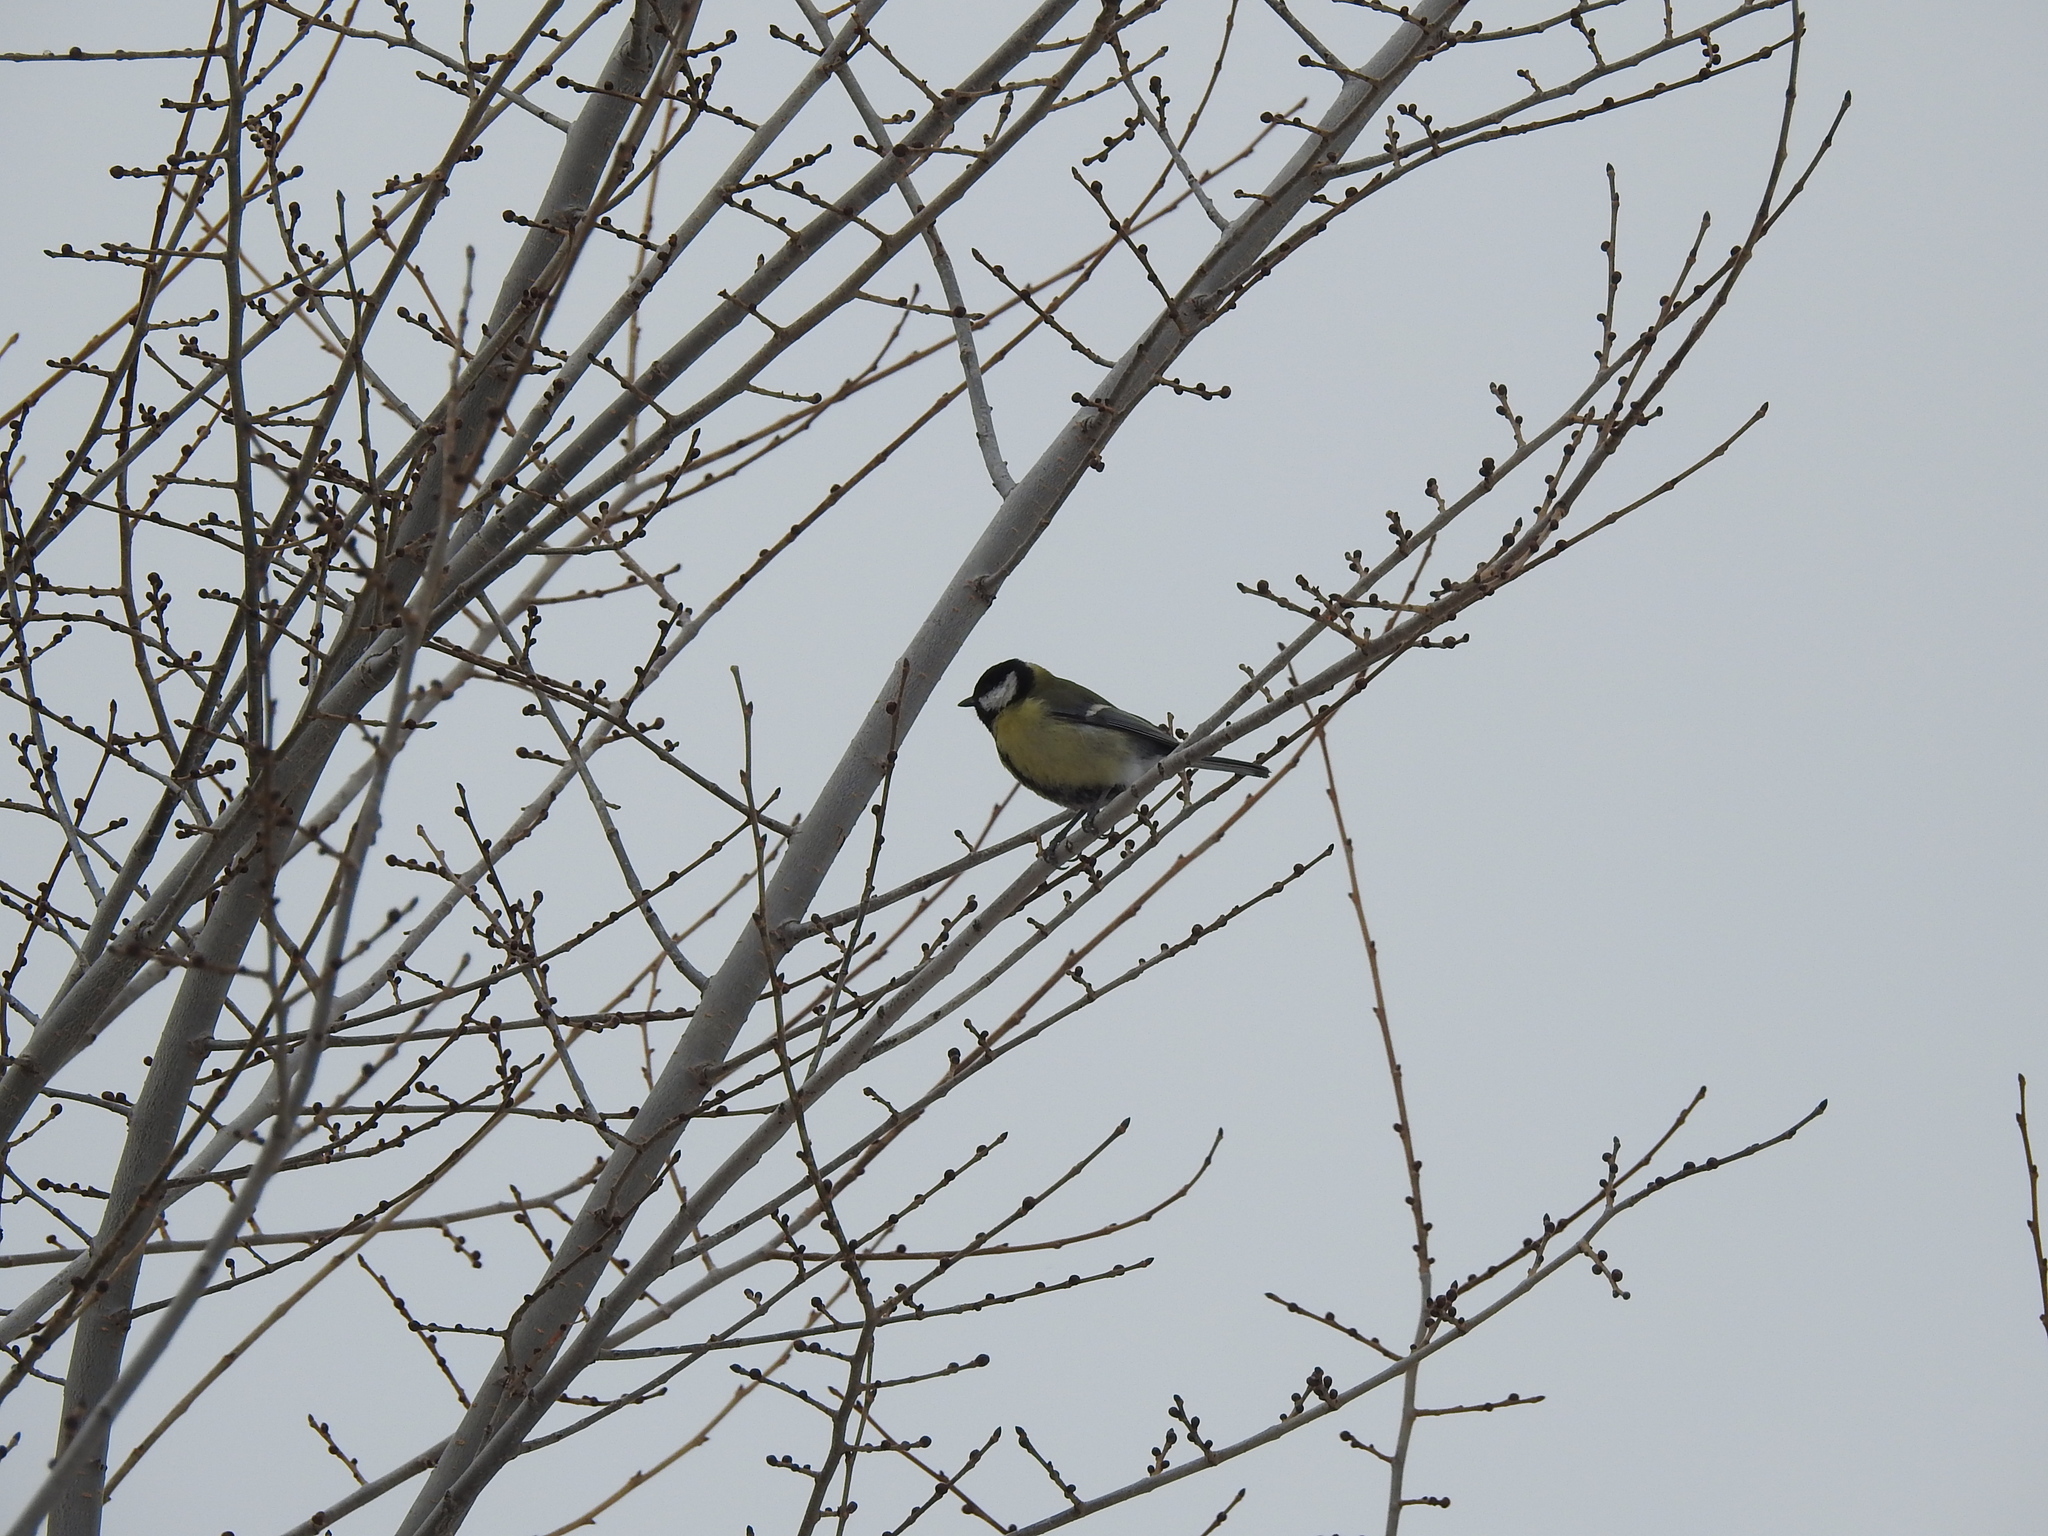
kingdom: Animalia
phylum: Chordata
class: Aves
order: Passeriformes
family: Paridae
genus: Parus
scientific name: Parus major
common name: Great tit
